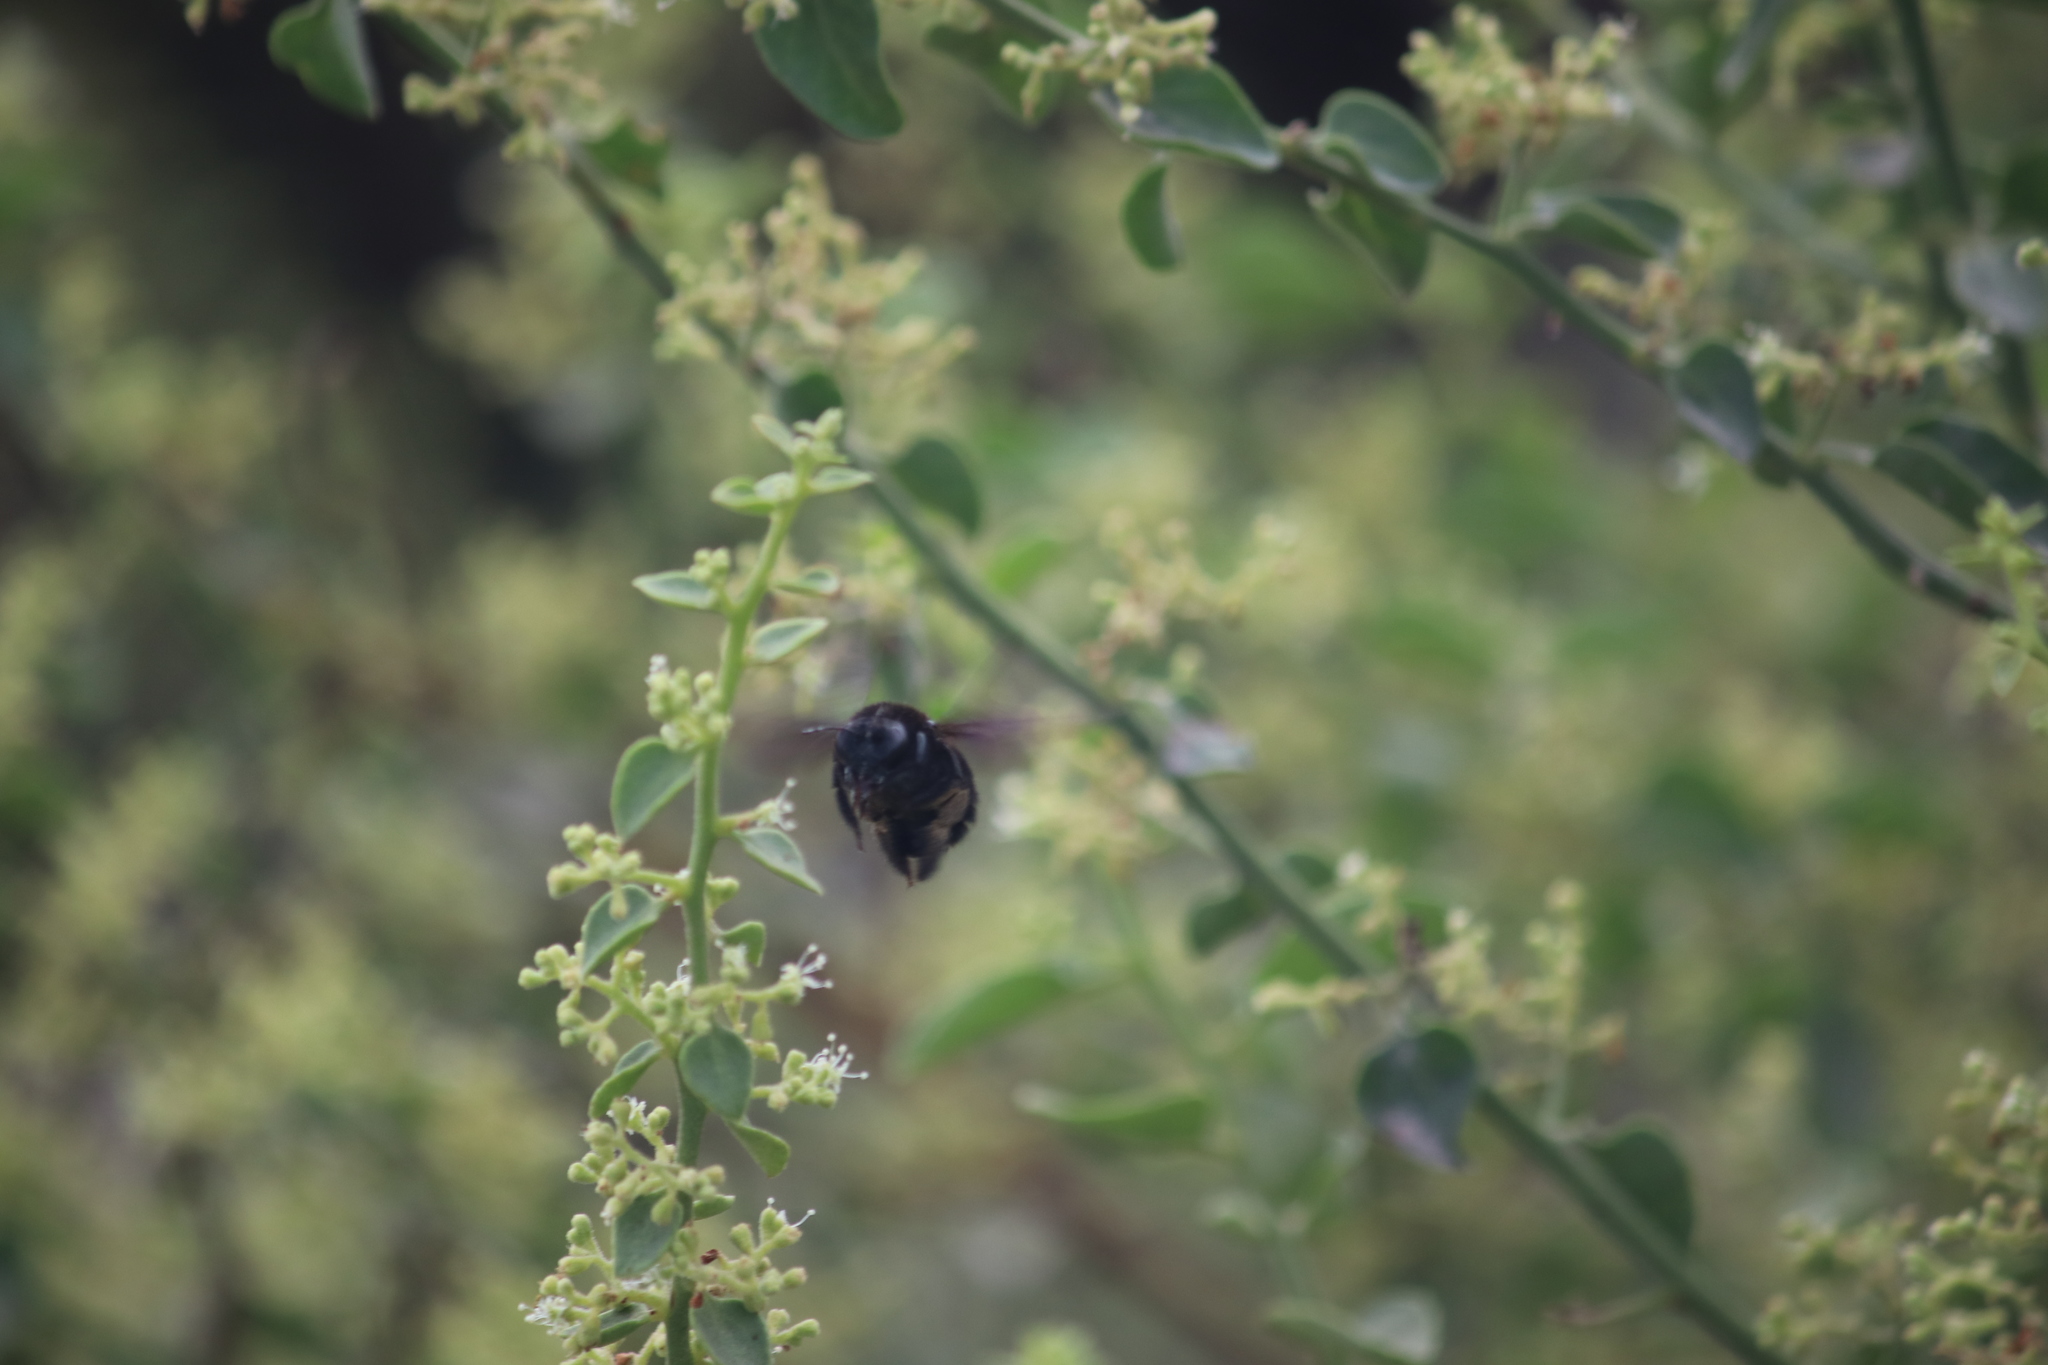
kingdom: Animalia
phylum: Arthropoda
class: Insecta
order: Hymenoptera
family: Apidae
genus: Xylocopa
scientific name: Xylocopa darwini
